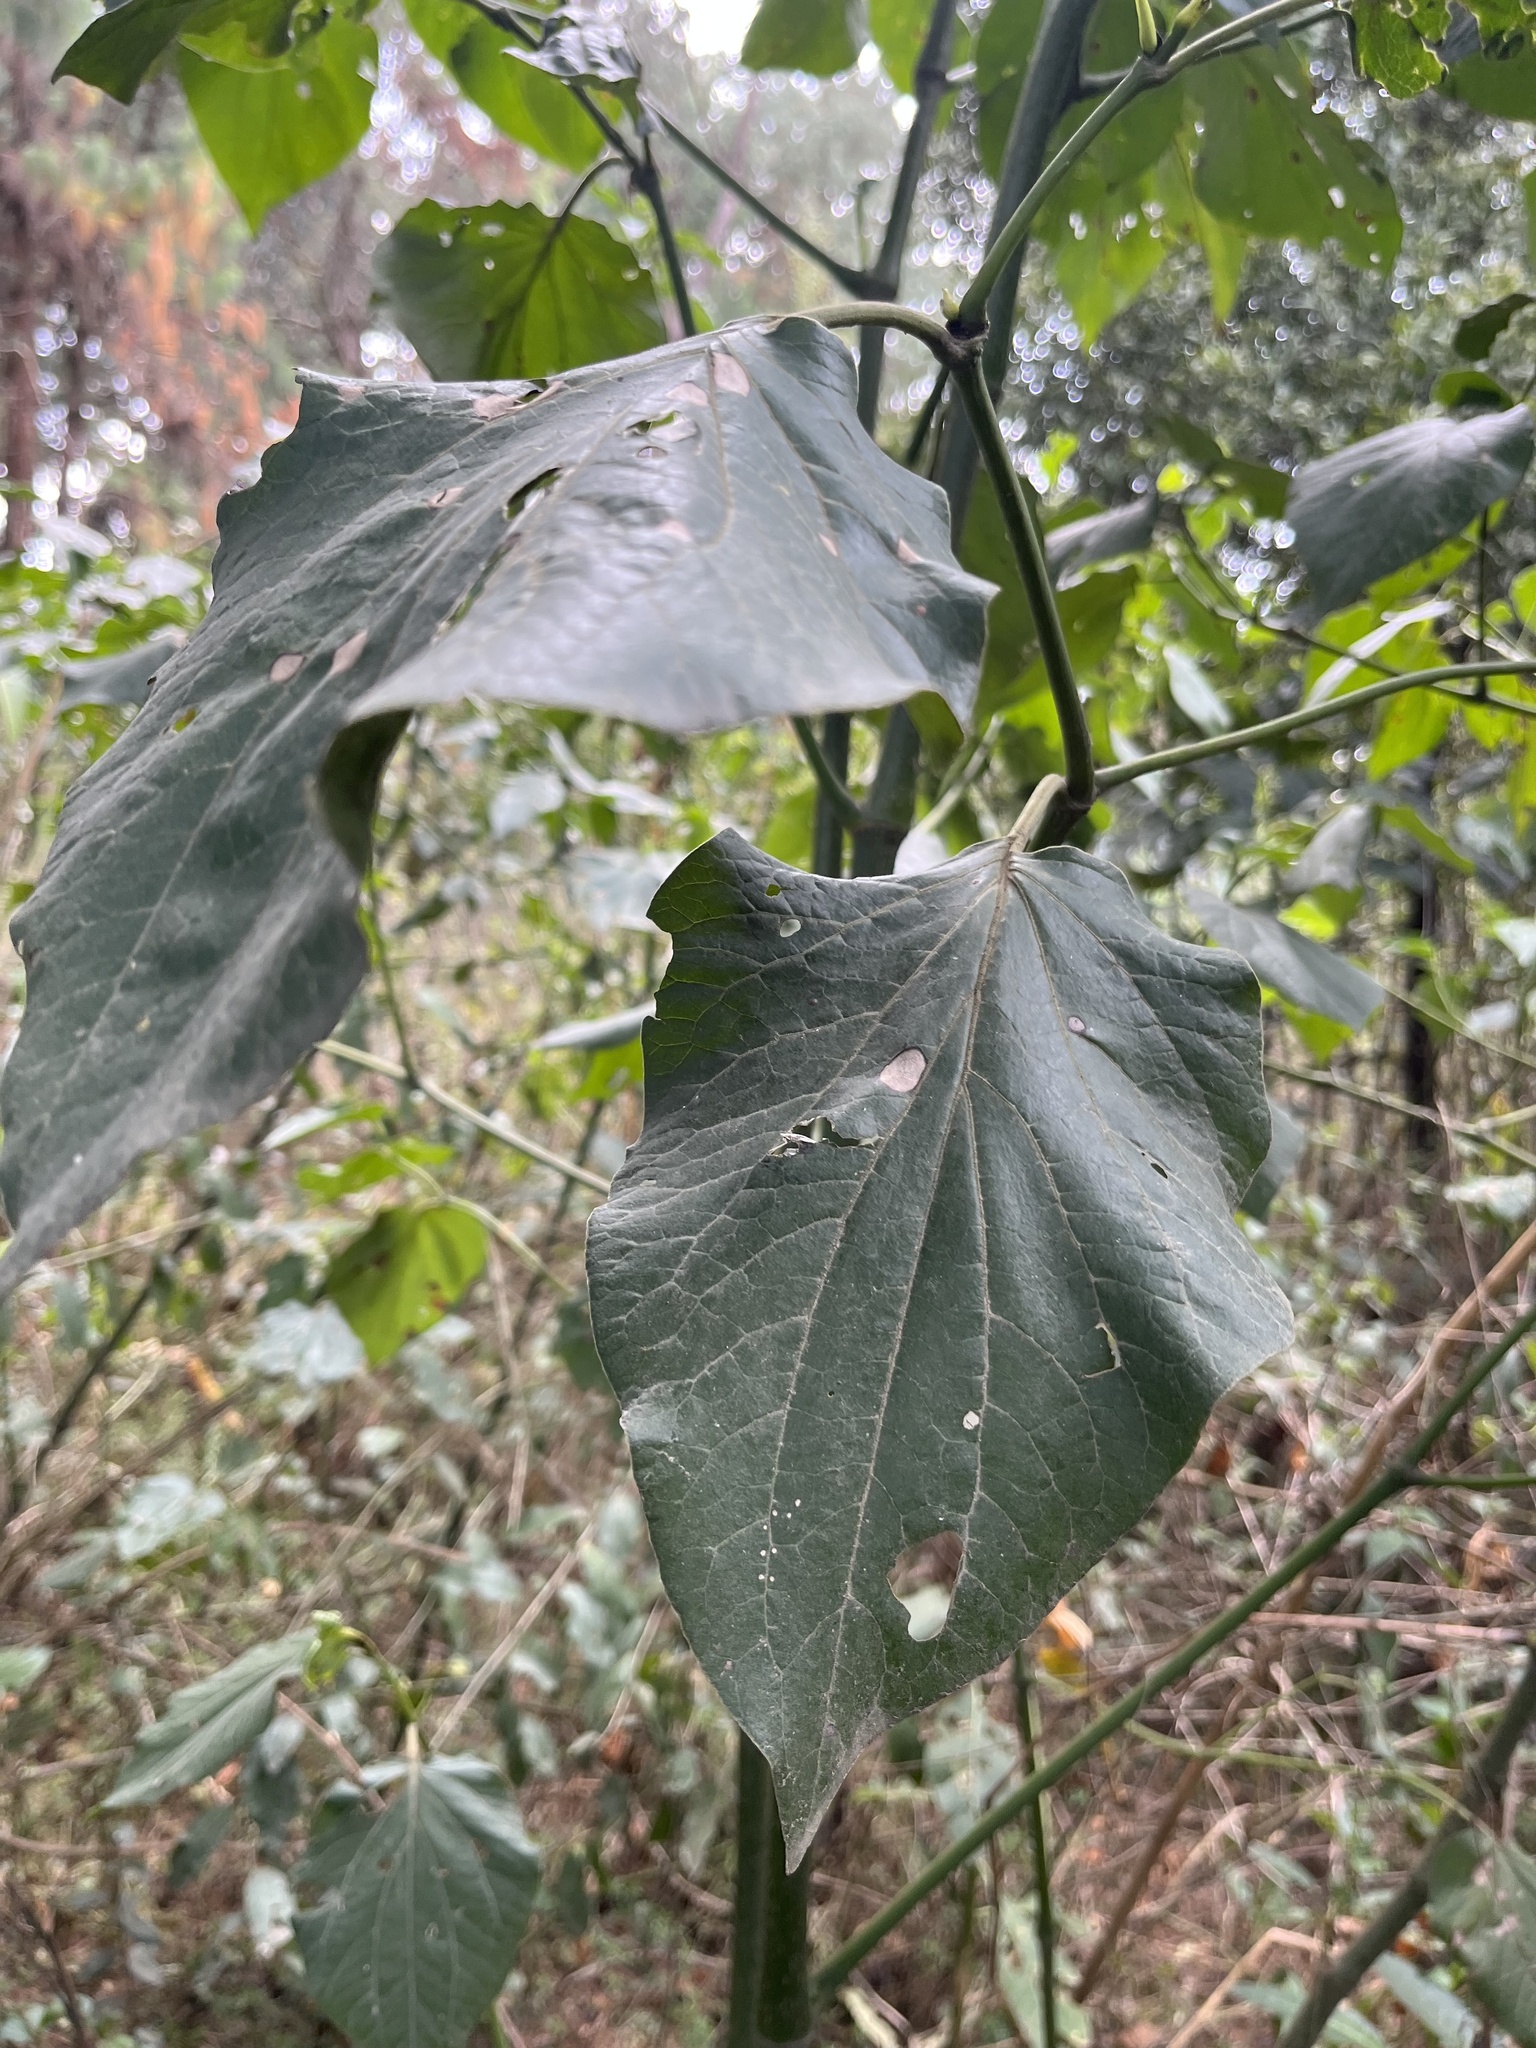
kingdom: Plantae
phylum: Tracheophyta
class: Magnoliopsida
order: Piperales
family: Piperaceae
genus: Piper
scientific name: Piper barbatum
